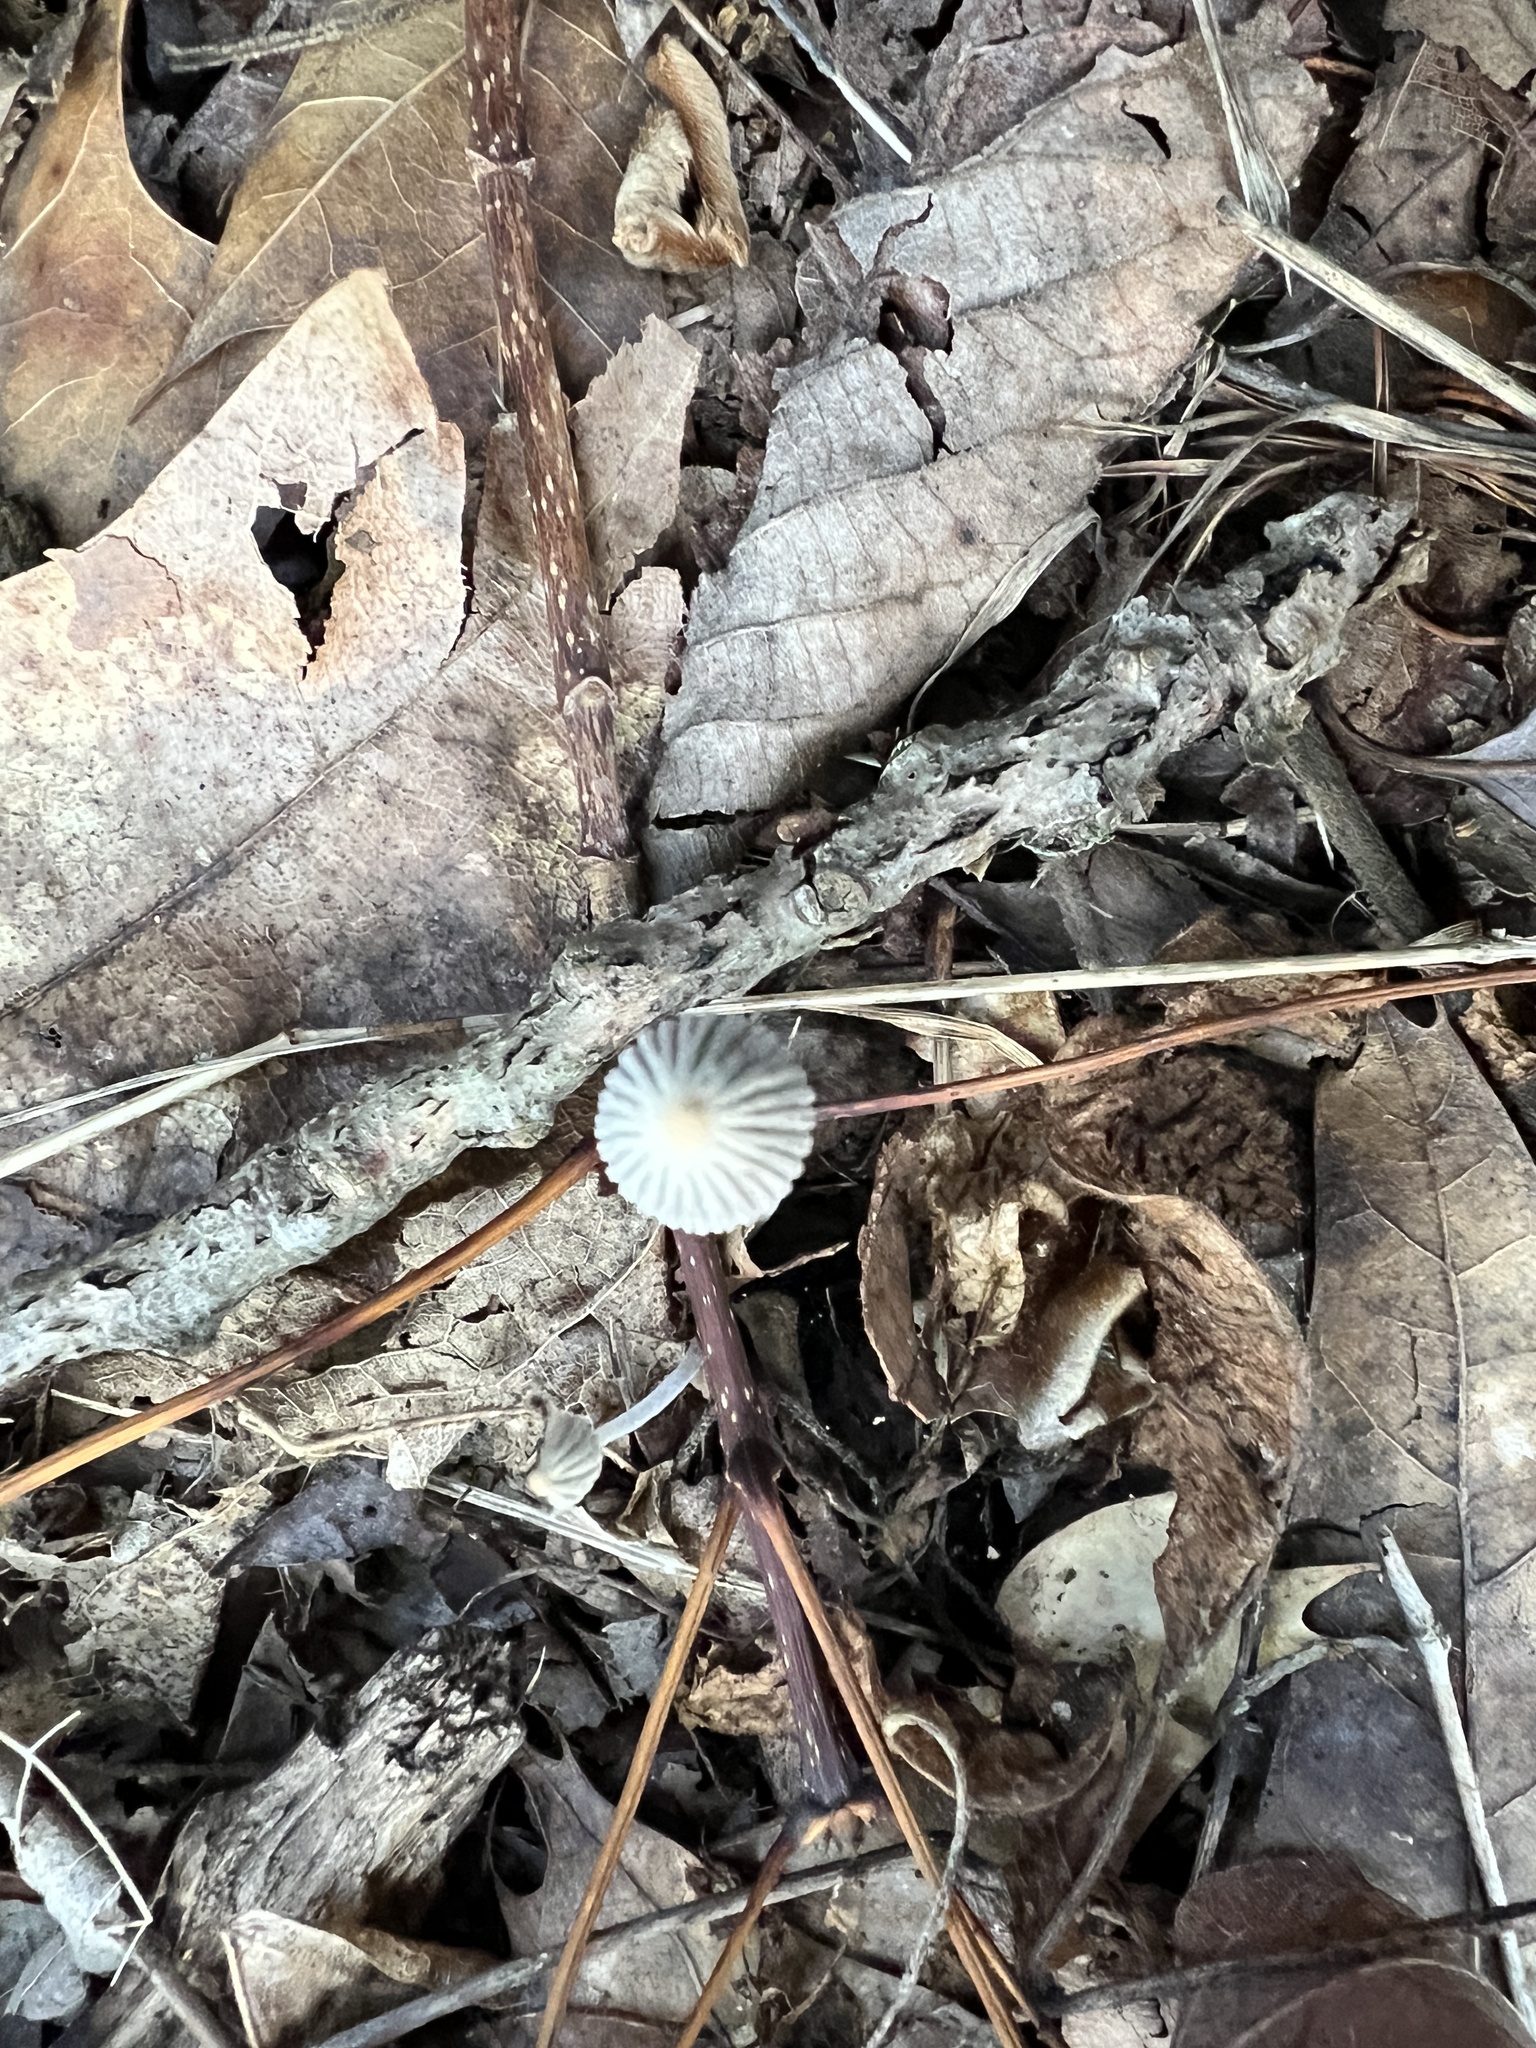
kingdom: Fungi
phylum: Basidiomycota
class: Agaricomycetes
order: Agaricales
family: Psathyrellaceae
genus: Tulosesus
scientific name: Tulosesus plagioporus
